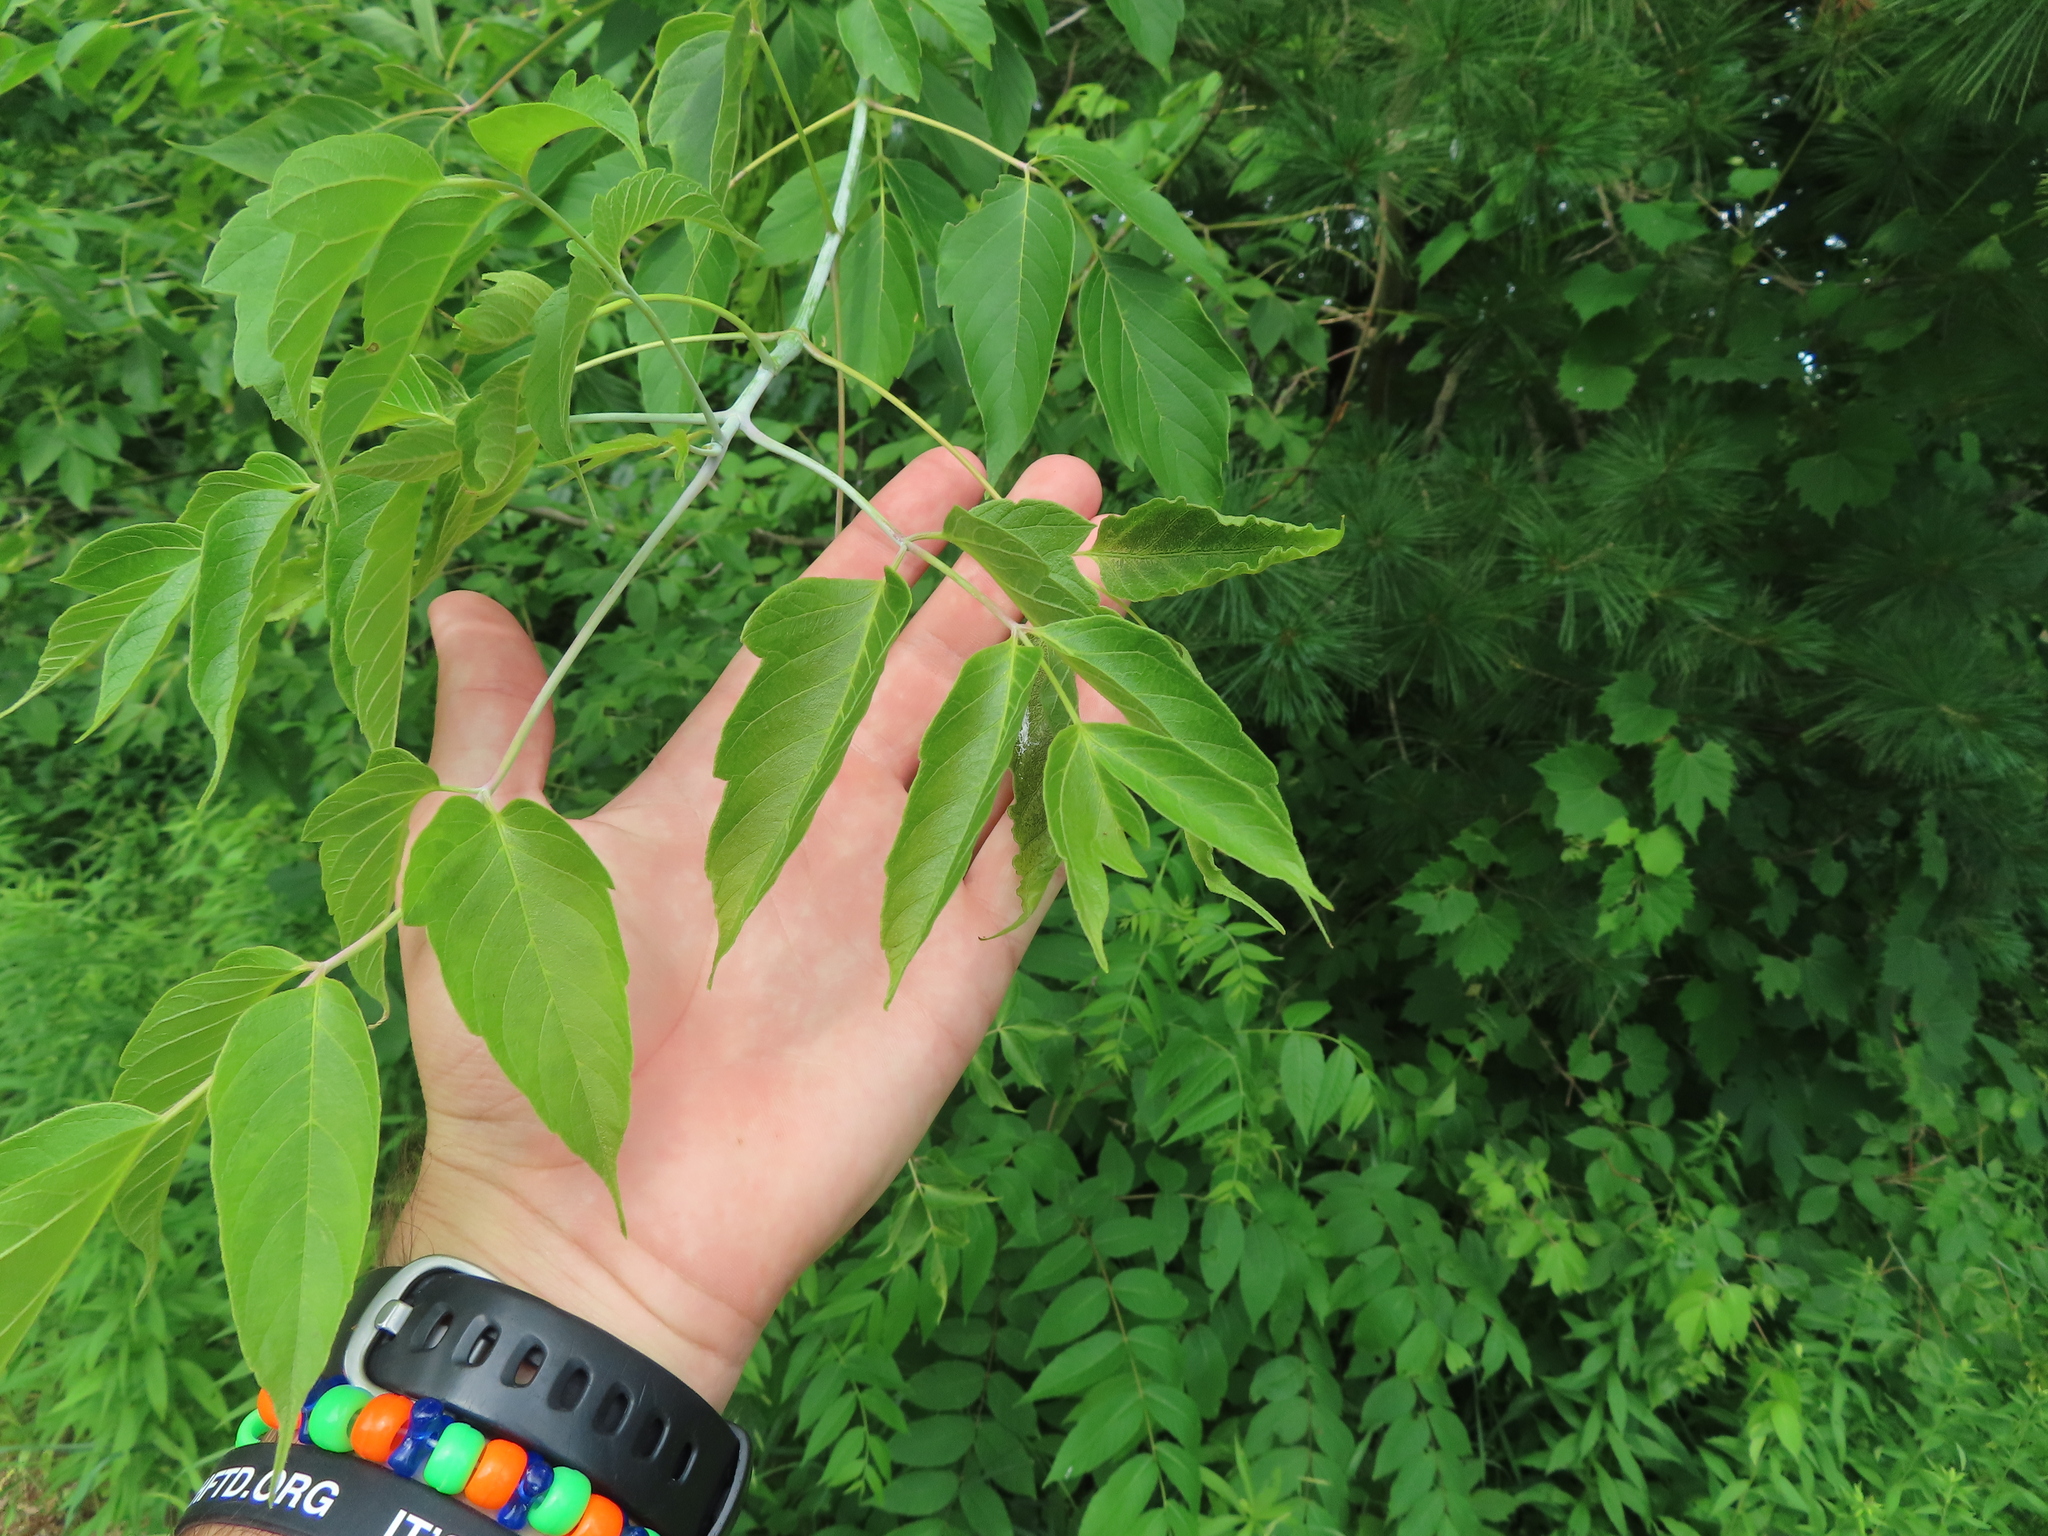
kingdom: Plantae
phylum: Tracheophyta
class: Magnoliopsida
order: Sapindales
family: Sapindaceae
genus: Acer
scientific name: Acer negundo
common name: Ashleaf maple
